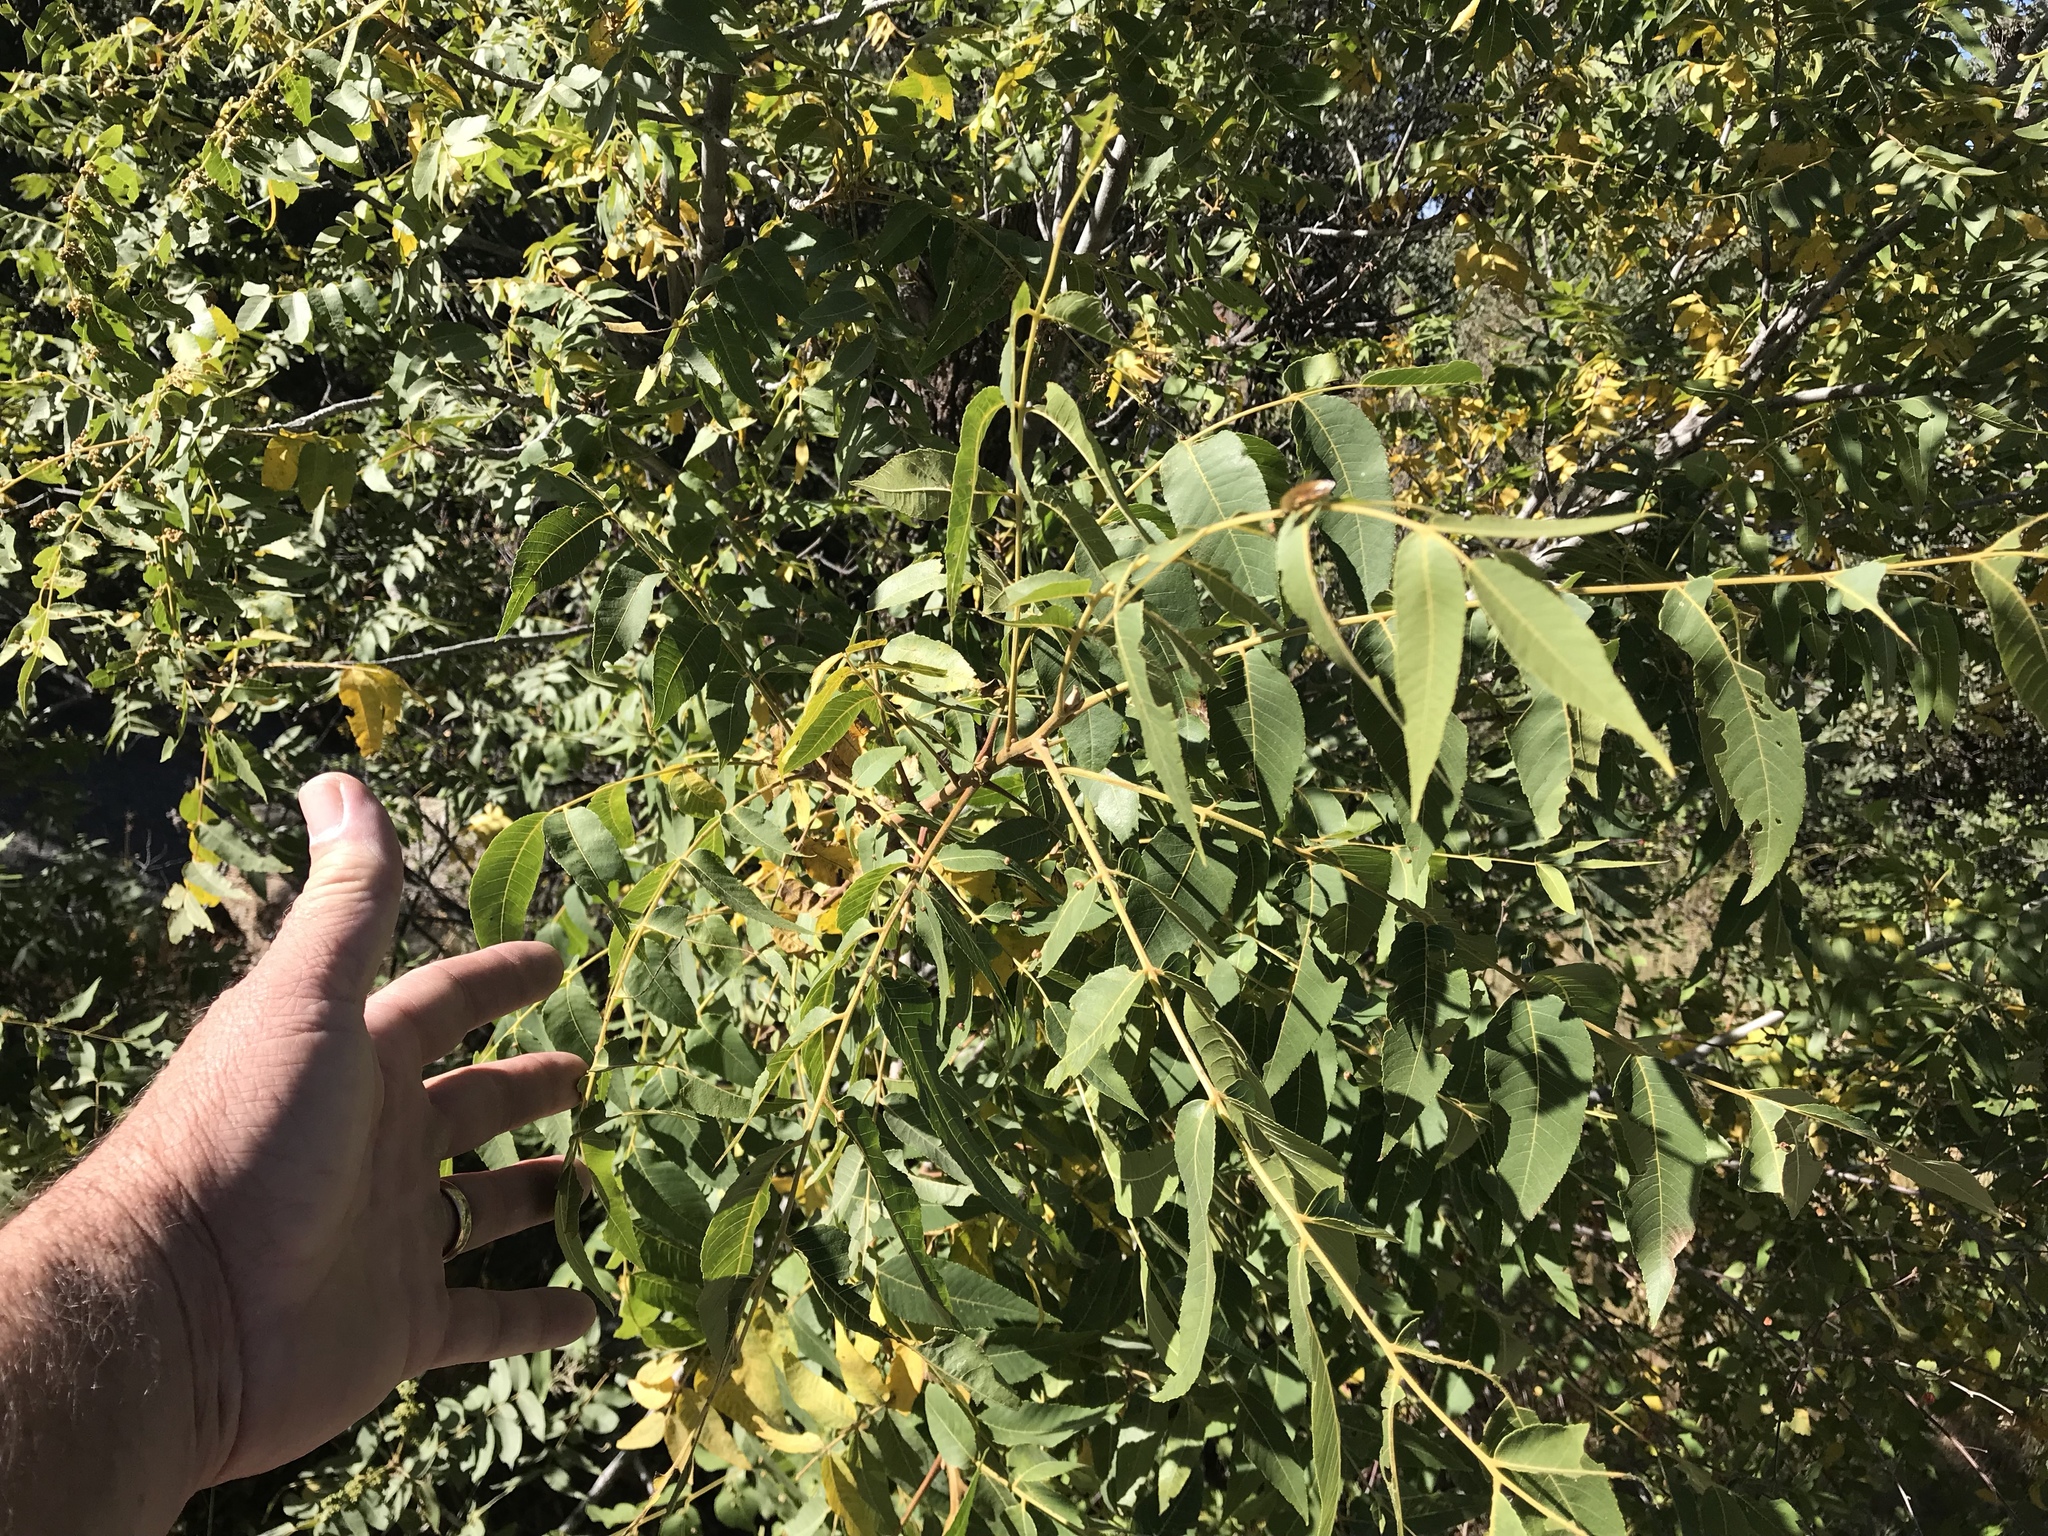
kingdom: Plantae
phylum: Tracheophyta
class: Magnoliopsida
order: Fagales
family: Juglandaceae
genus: Juglans
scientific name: Juglans major
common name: Arizona walnut
